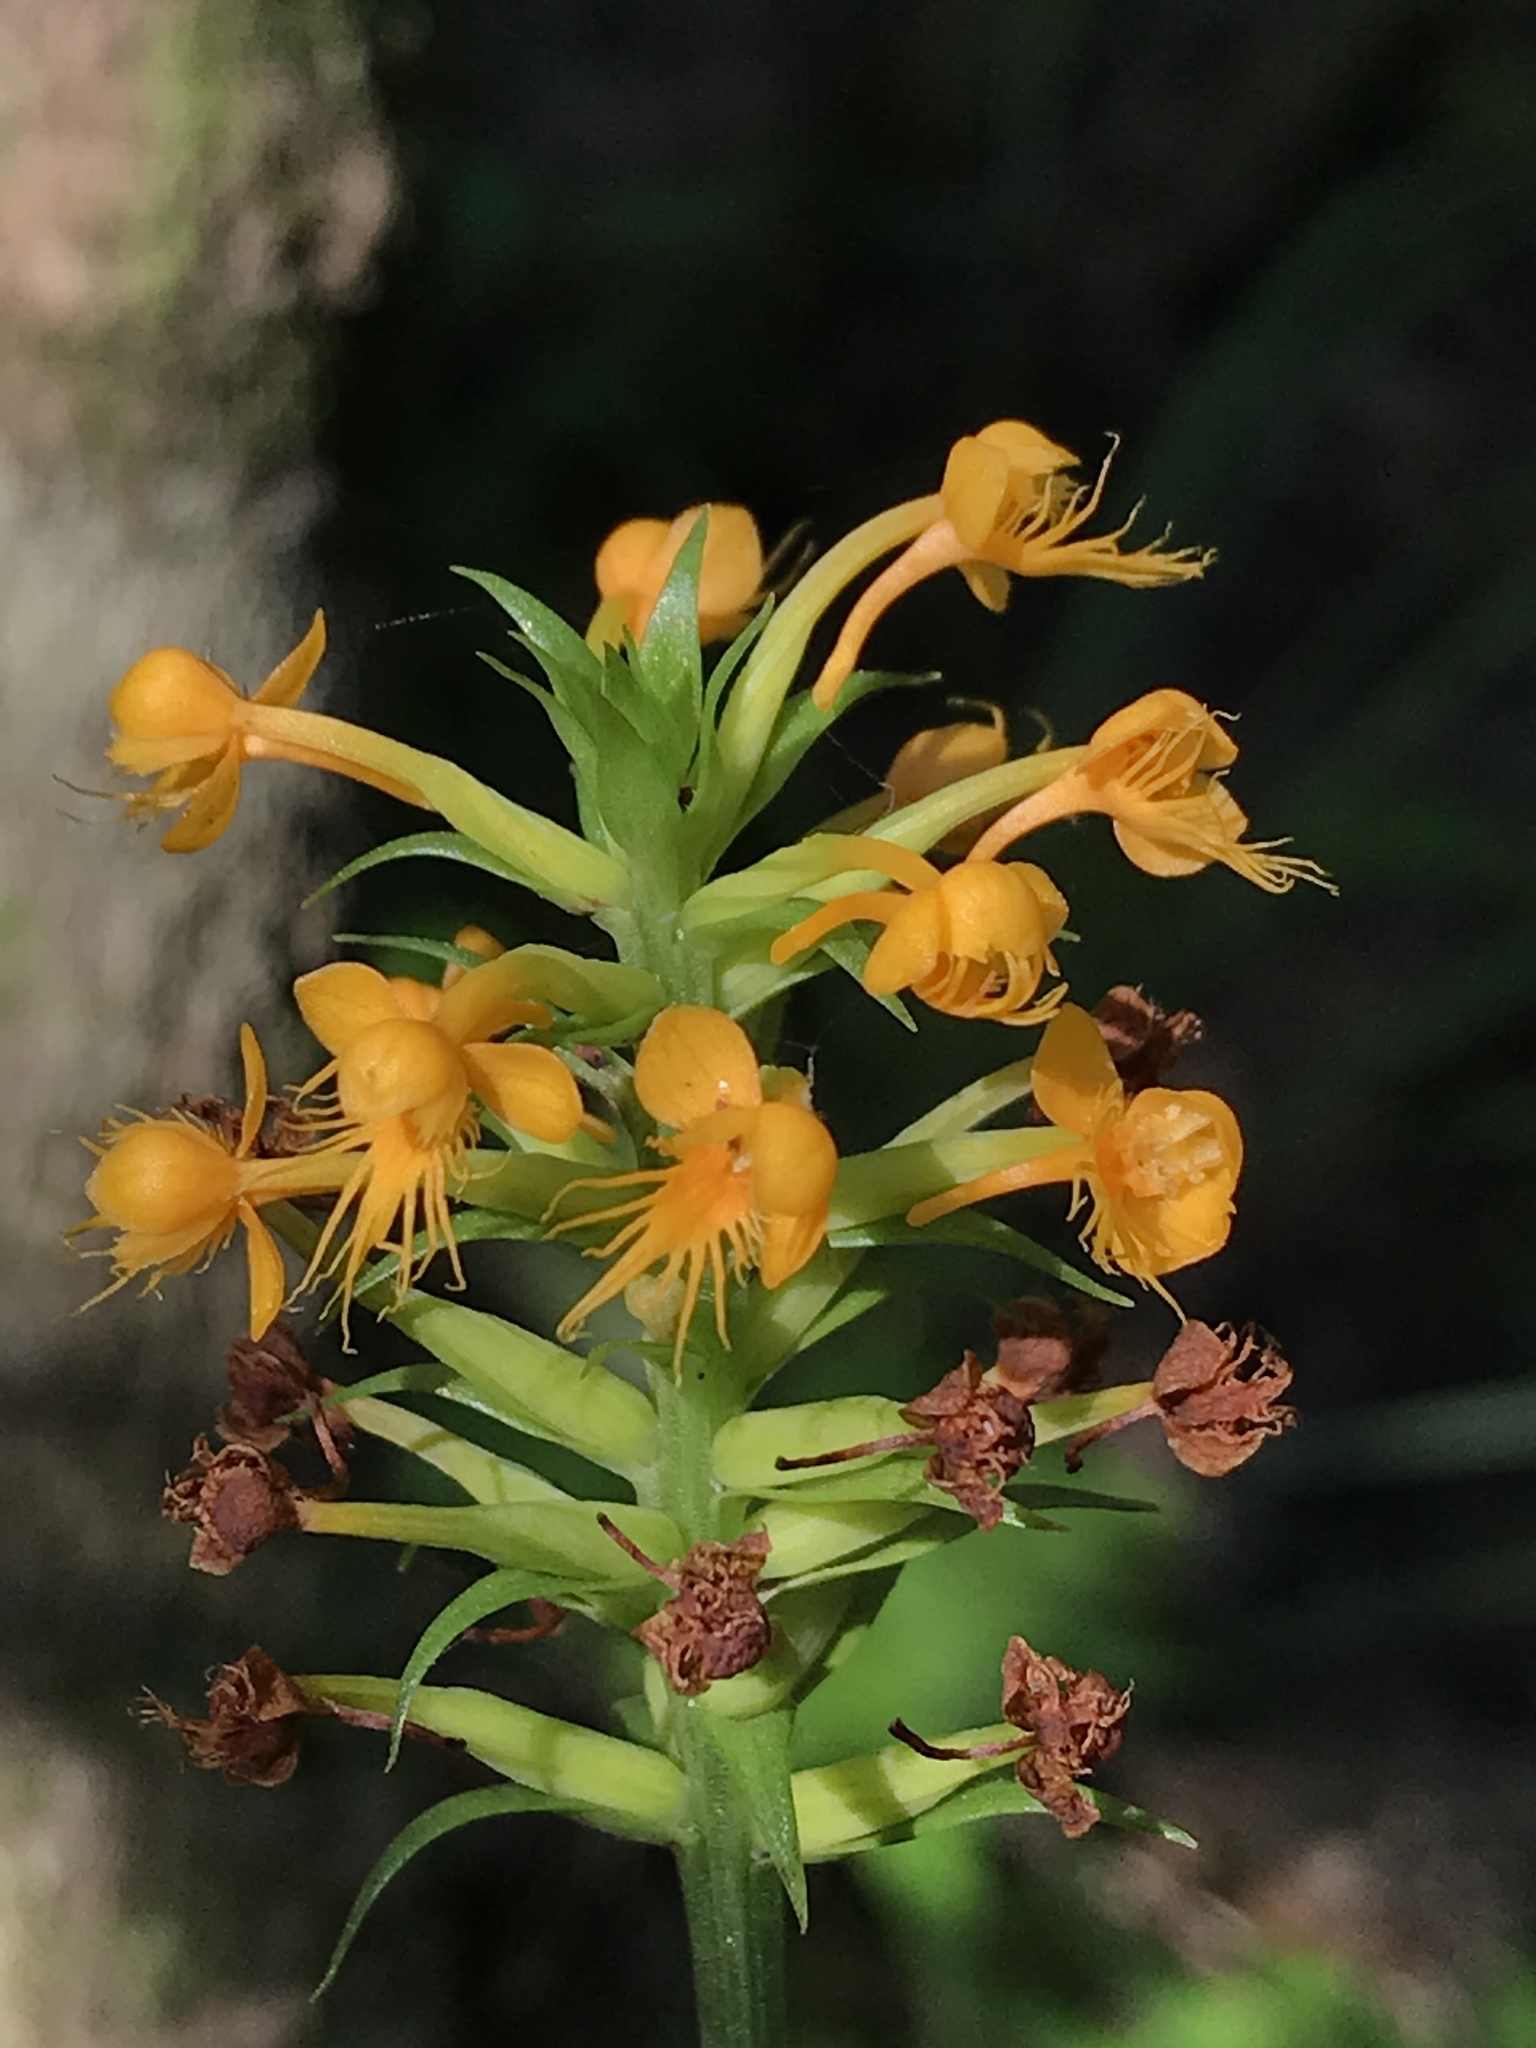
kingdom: Plantae
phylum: Tracheophyta
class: Liliopsida
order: Asparagales
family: Orchidaceae
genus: Platanthera
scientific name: Platanthera cristata
